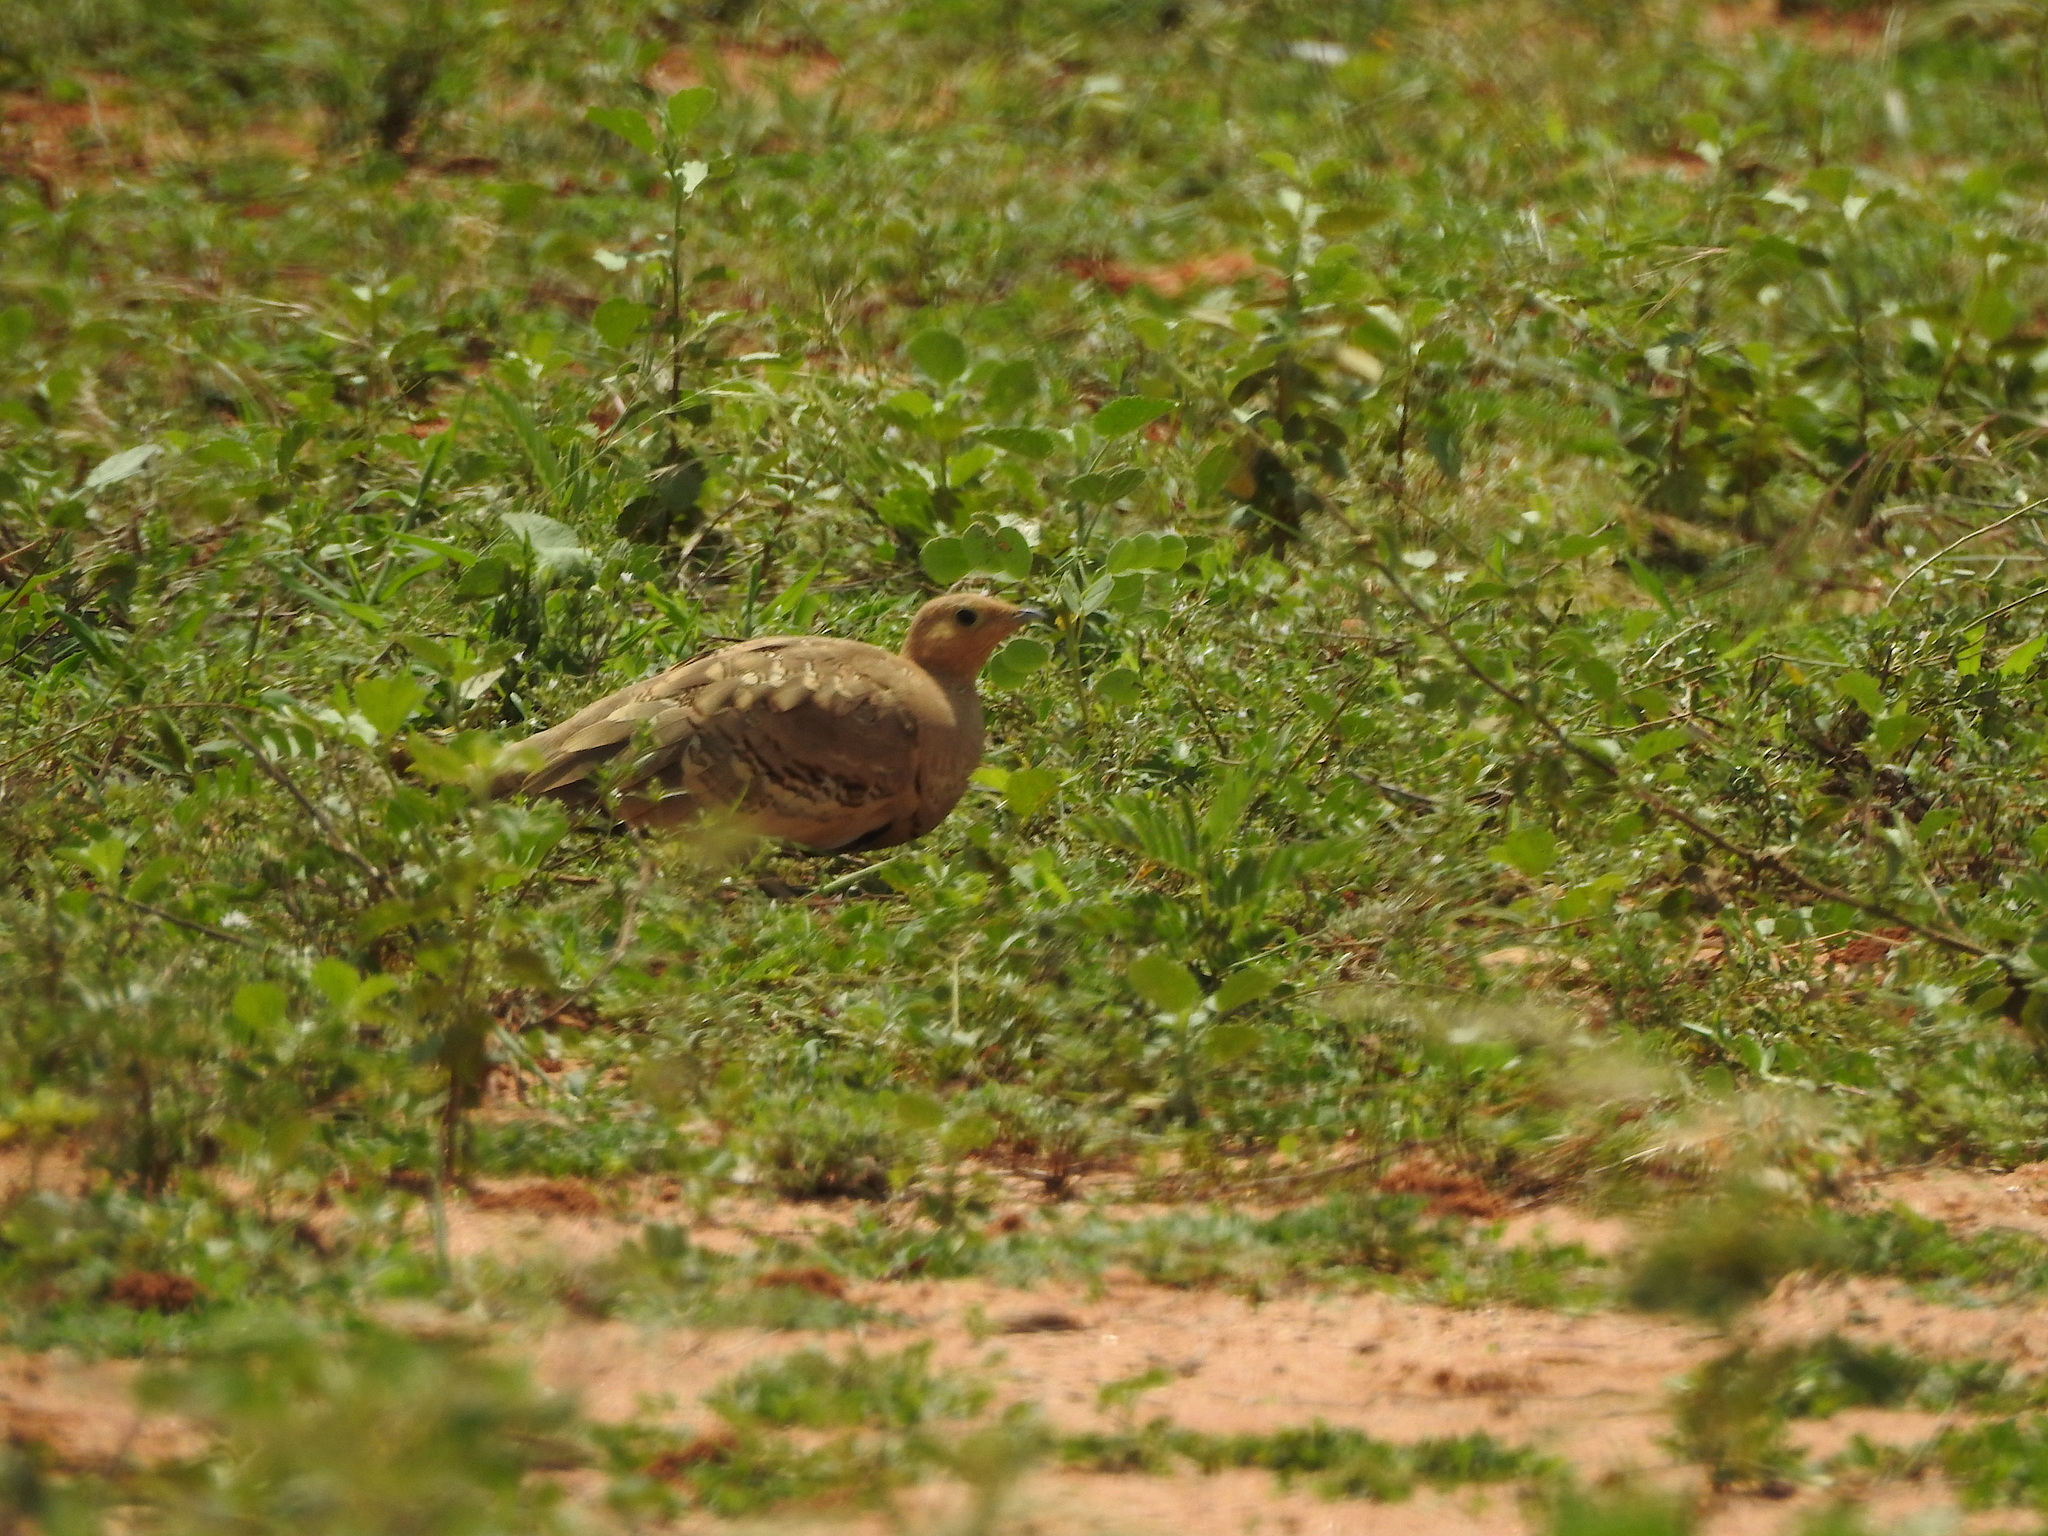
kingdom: Animalia
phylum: Chordata
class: Aves
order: Pteroclidiformes
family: Pteroclididae
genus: Pterocles
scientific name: Pterocles exustus
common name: Chestnut-bellied sandgrouse
